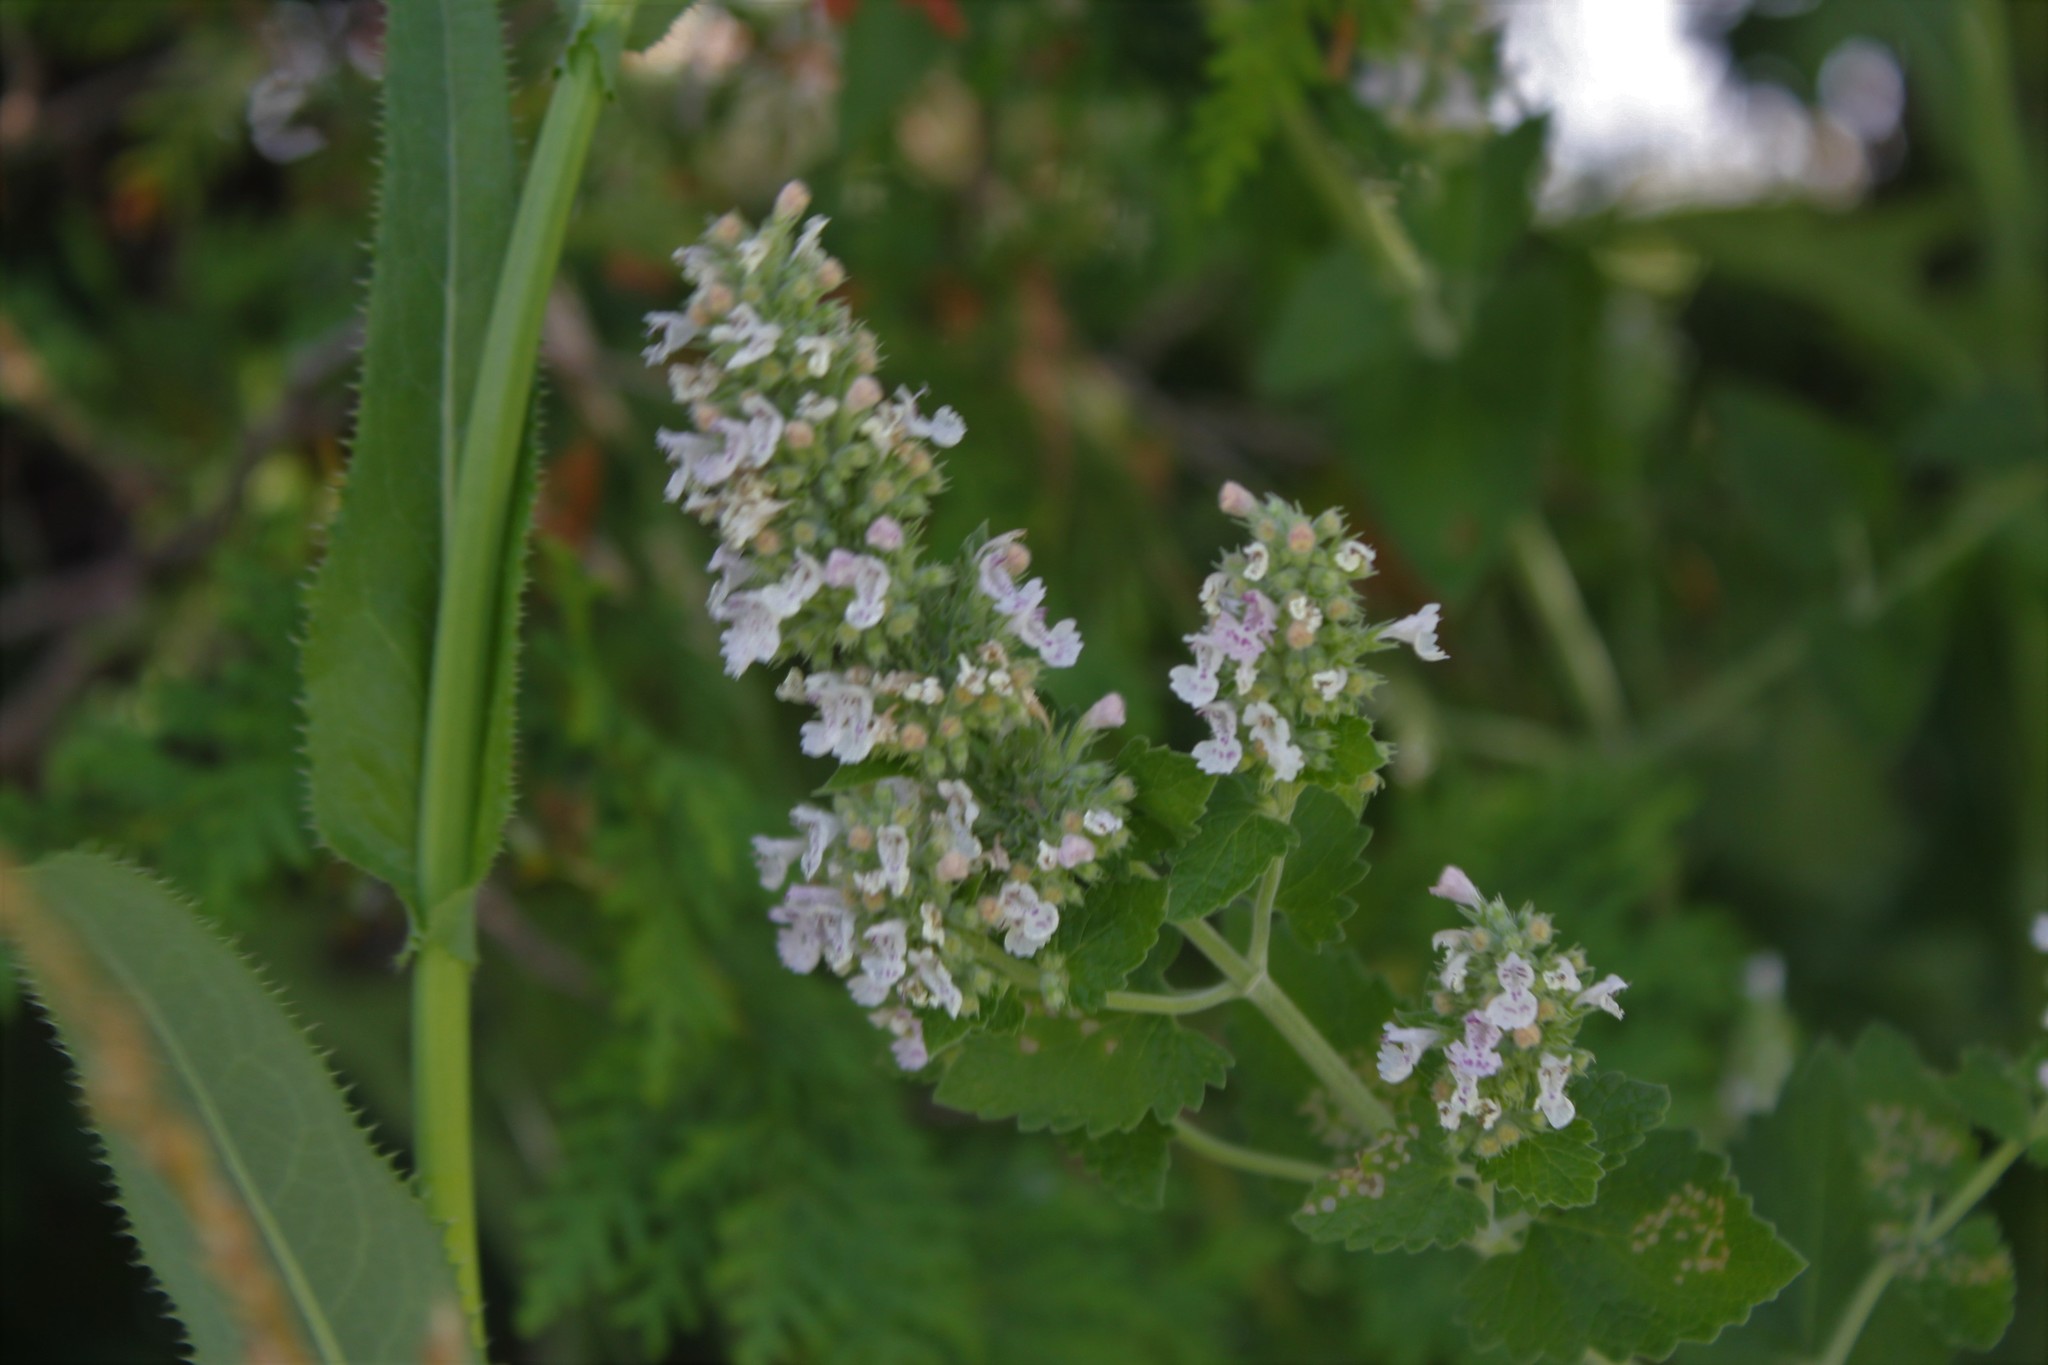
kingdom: Plantae
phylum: Tracheophyta
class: Magnoliopsida
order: Lamiales
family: Lamiaceae
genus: Nepeta
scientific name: Nepeta cataria
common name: Catnip
